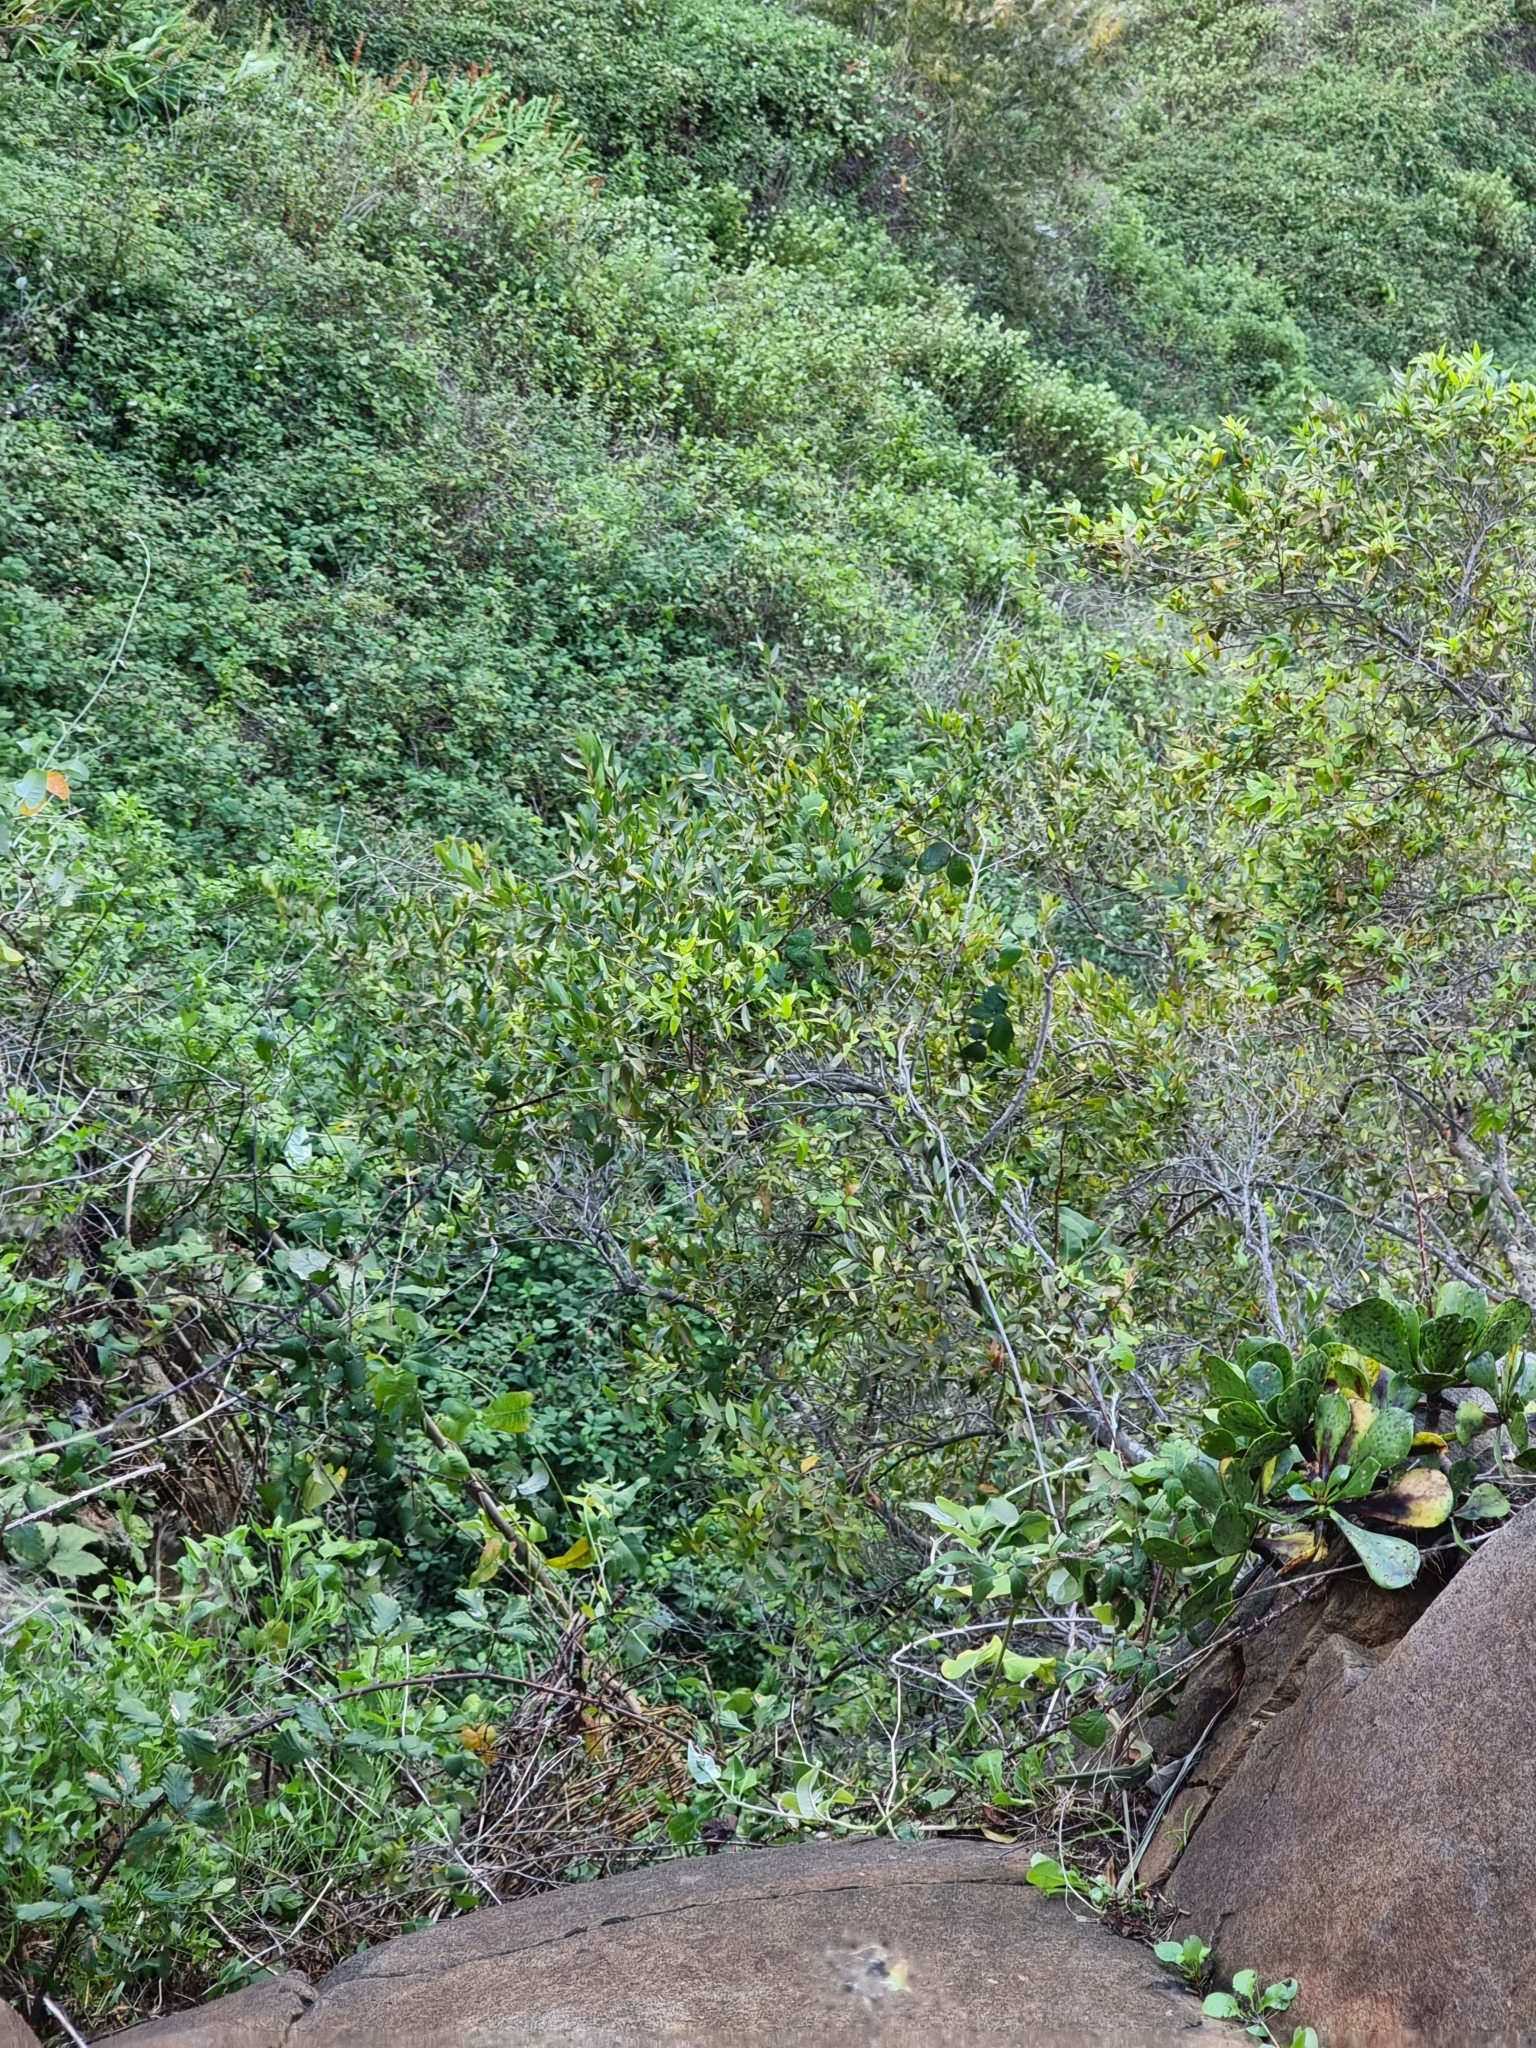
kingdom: Plantae
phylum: Tracheophyta
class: Magnoliopsida
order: Myrtales
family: Myrtaceae
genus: Myrtus
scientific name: Myrtus communis
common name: Myrtle
